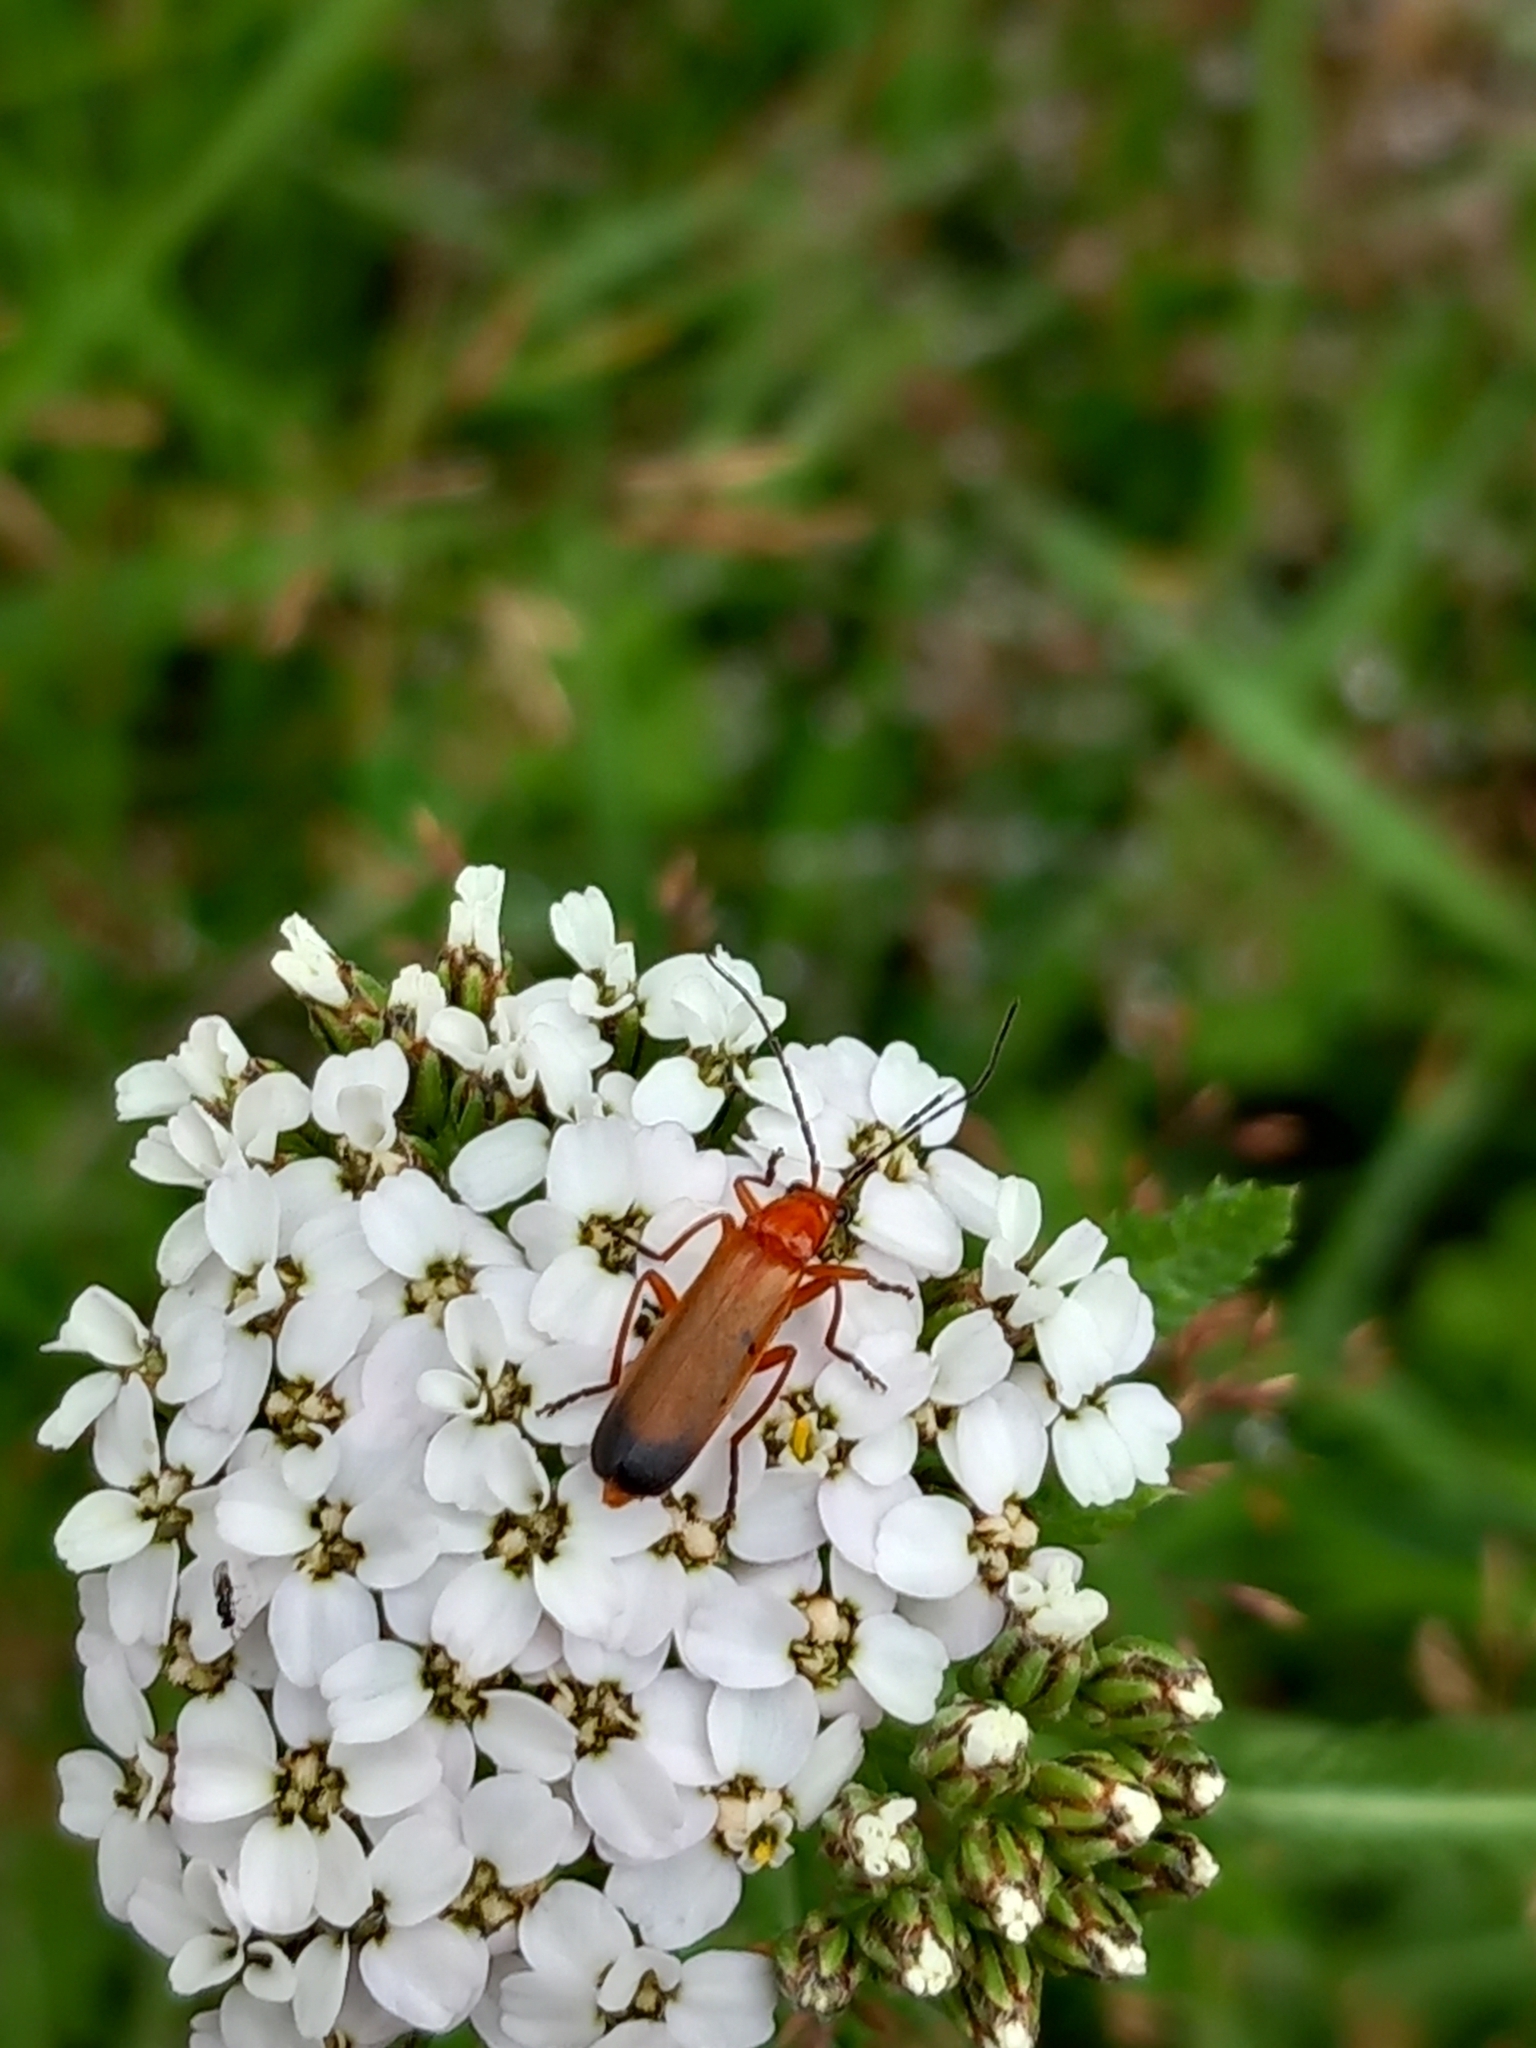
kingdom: Animalia
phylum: Arthropoda
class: Insecta
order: Coleoptera
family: Cantharidae
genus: Rhagonycha
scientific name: Rhagonycha fulva
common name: Common red soldier beetle
